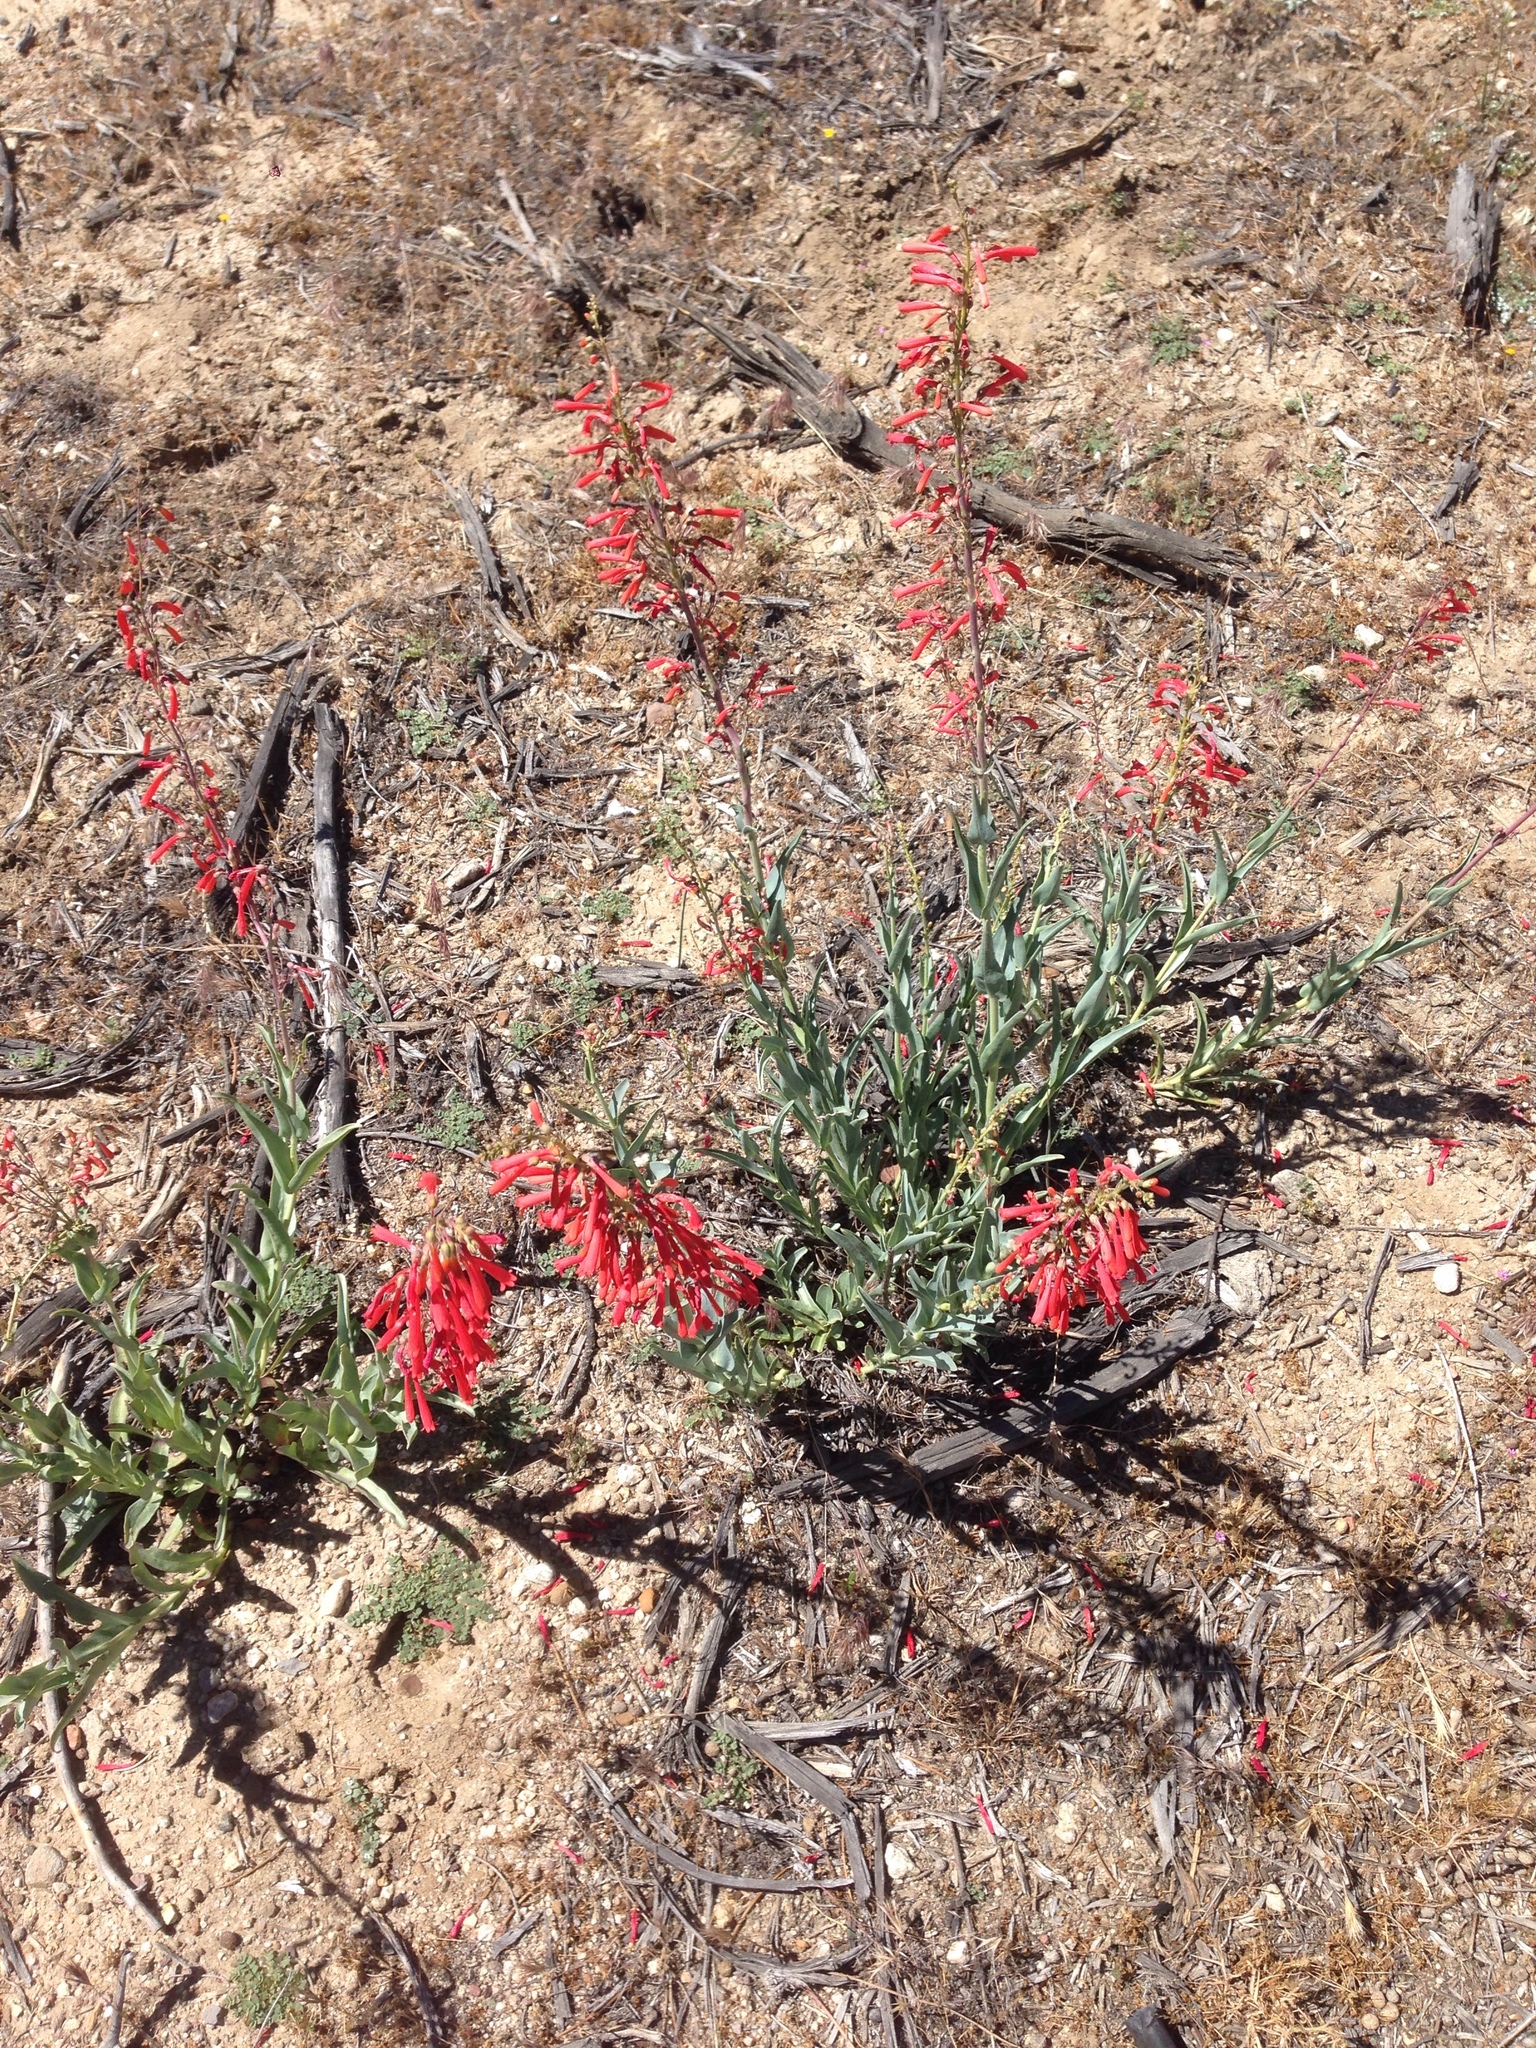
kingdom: Plantae
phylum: Tracheophyta
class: Magnoliopsida
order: Lamiales
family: Plantaginaceae
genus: Penstemon
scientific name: Penstemon centranthifolius
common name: Scarlet bugler
